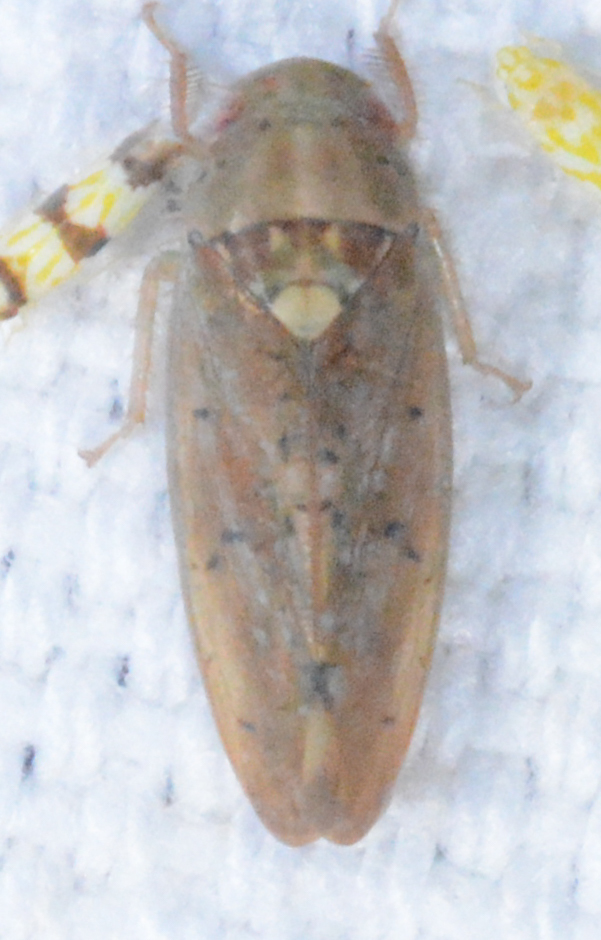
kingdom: Animalia
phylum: Arthropoda
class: Insecta
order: Hemiptera
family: Cicadellidae
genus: Ponana
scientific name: Ponana quadralaba
